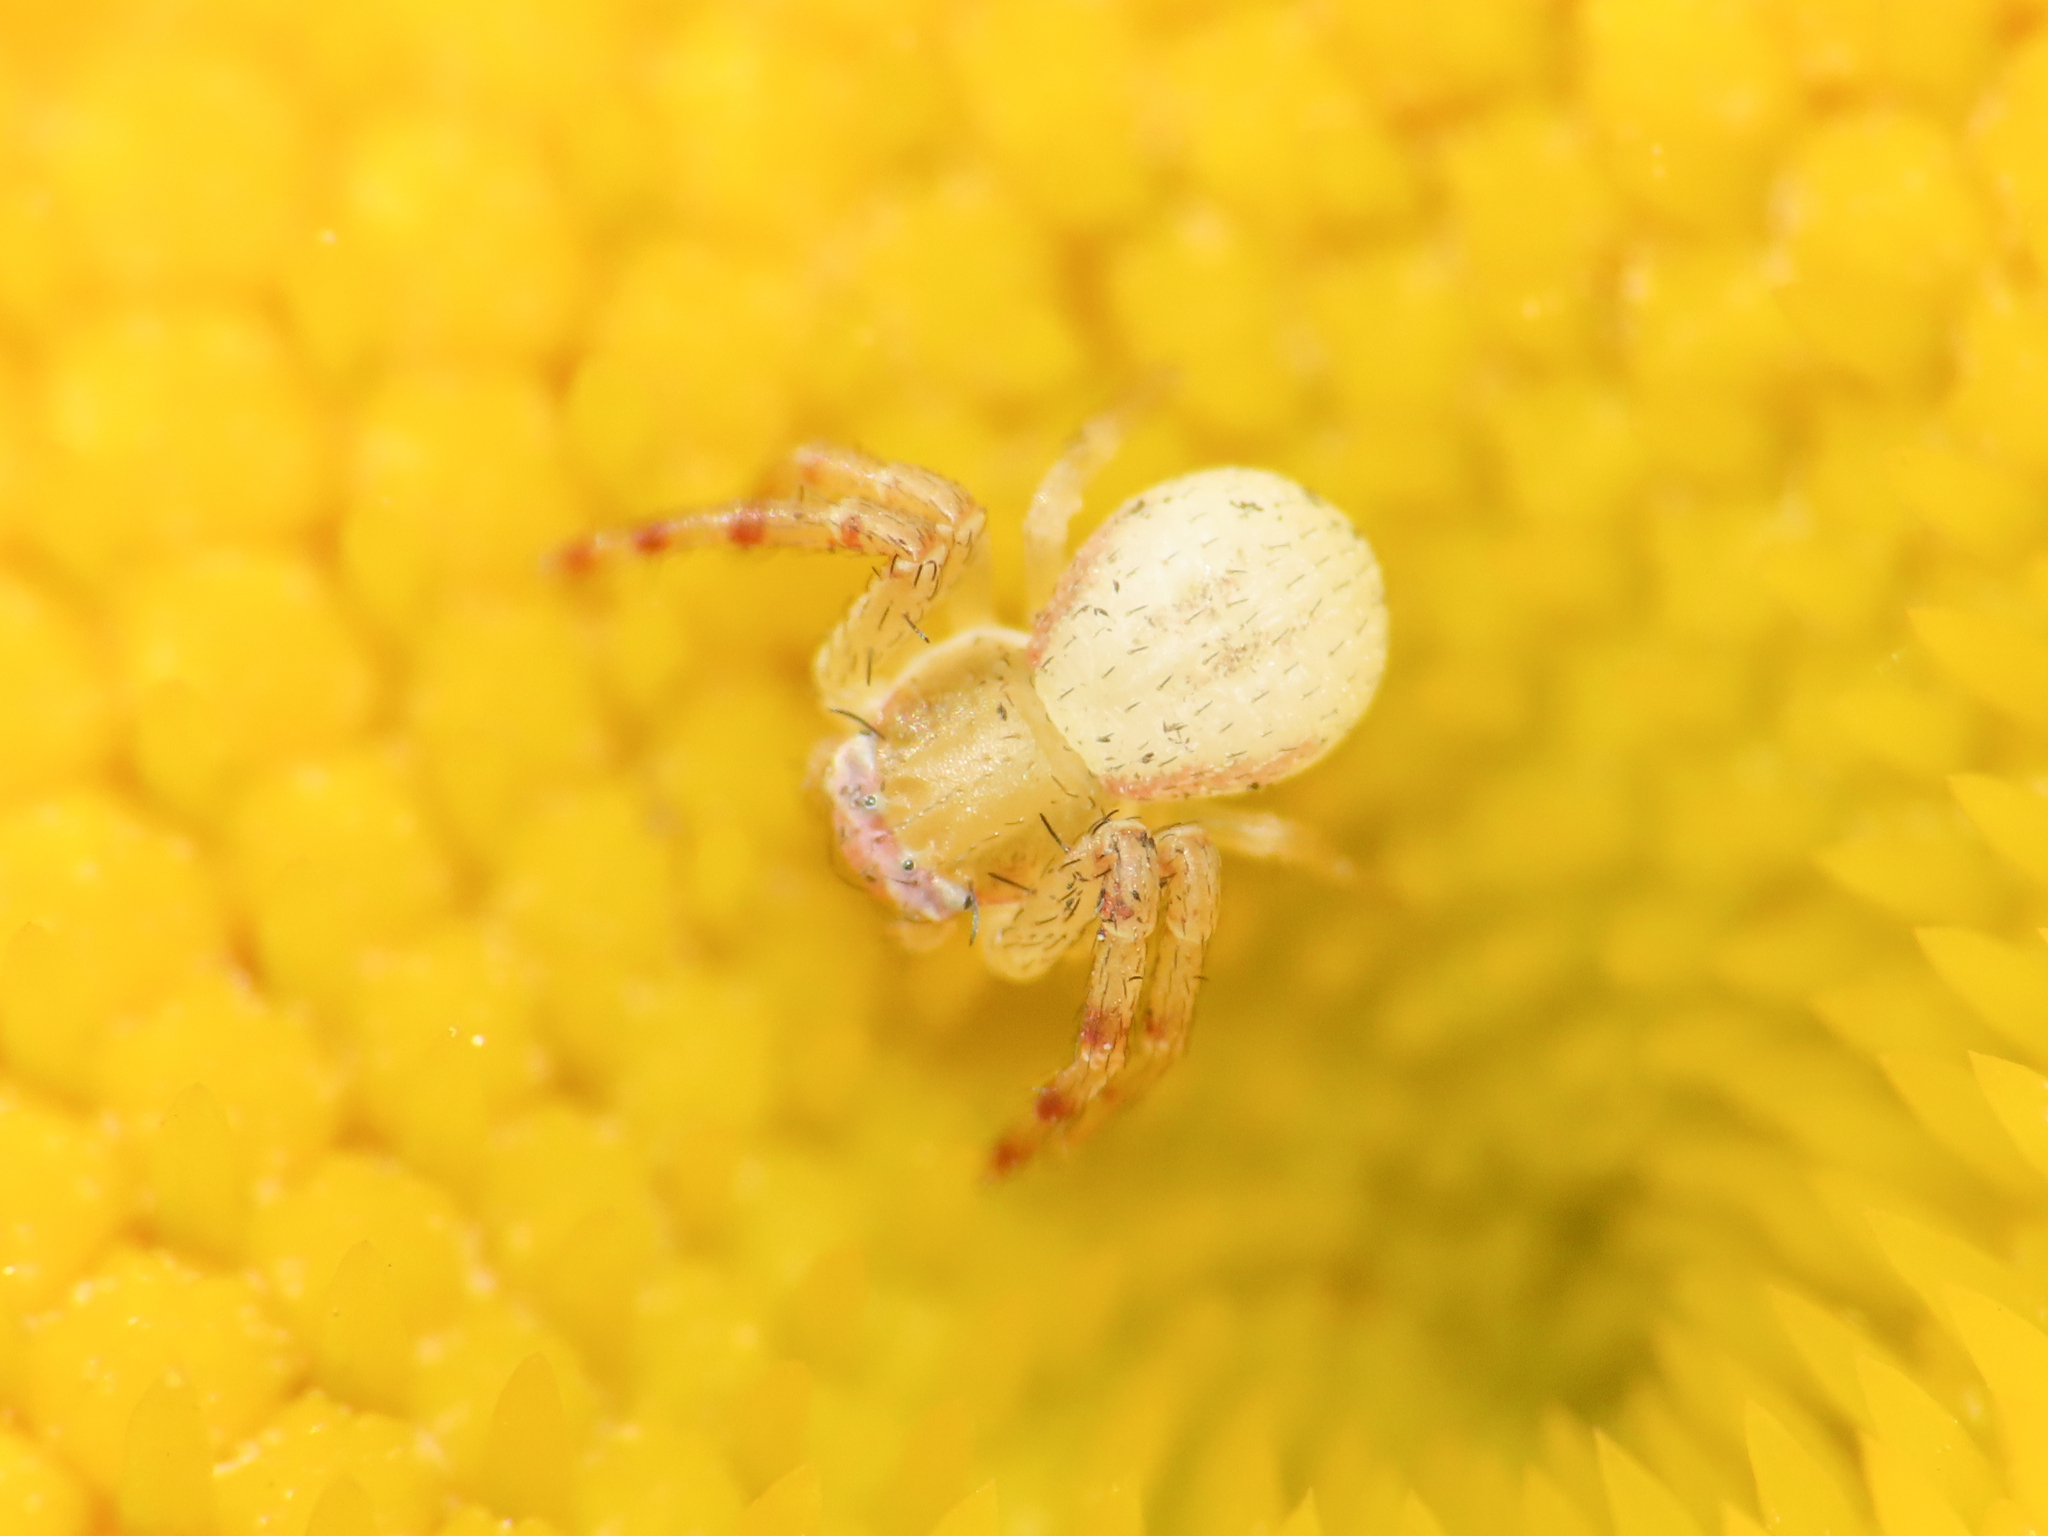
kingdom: Animalia
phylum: Arthropoda
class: Arachnida
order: Araneae
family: Thomisidae
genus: Runcinia
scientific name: Runcinia grammica
